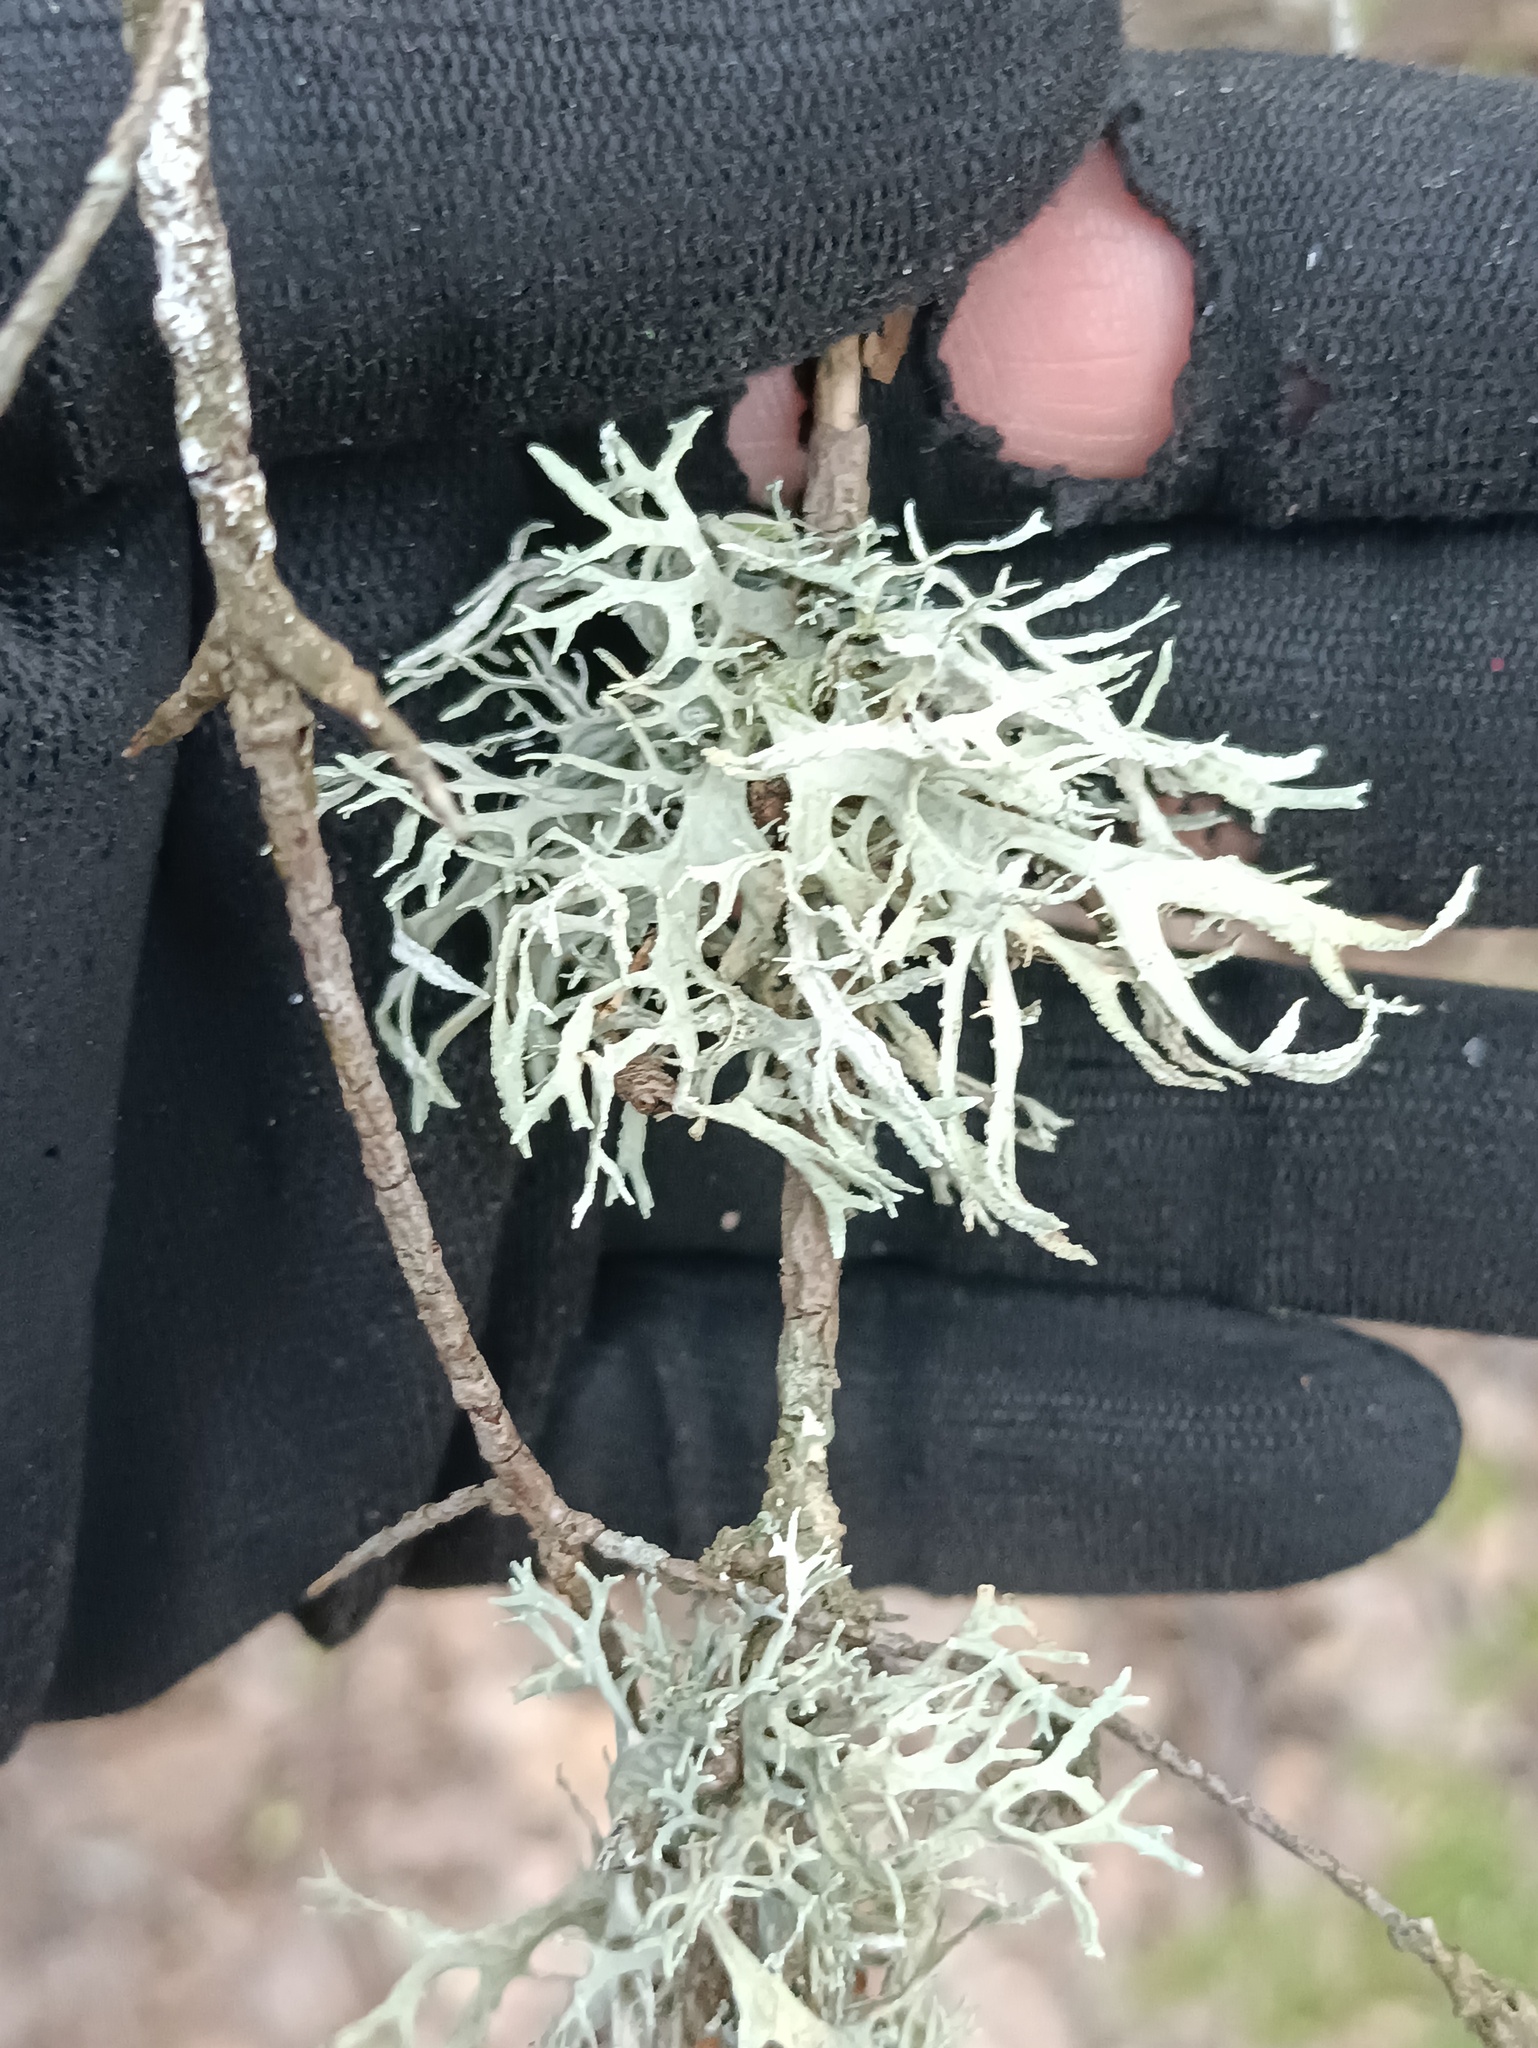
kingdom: Fungi
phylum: Ascomycota
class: Lecanoromycetes
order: Lecanorales
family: Parmeliaceae
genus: Evernia
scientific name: Evernia mesomorpha
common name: Boreal oak moss lichen
